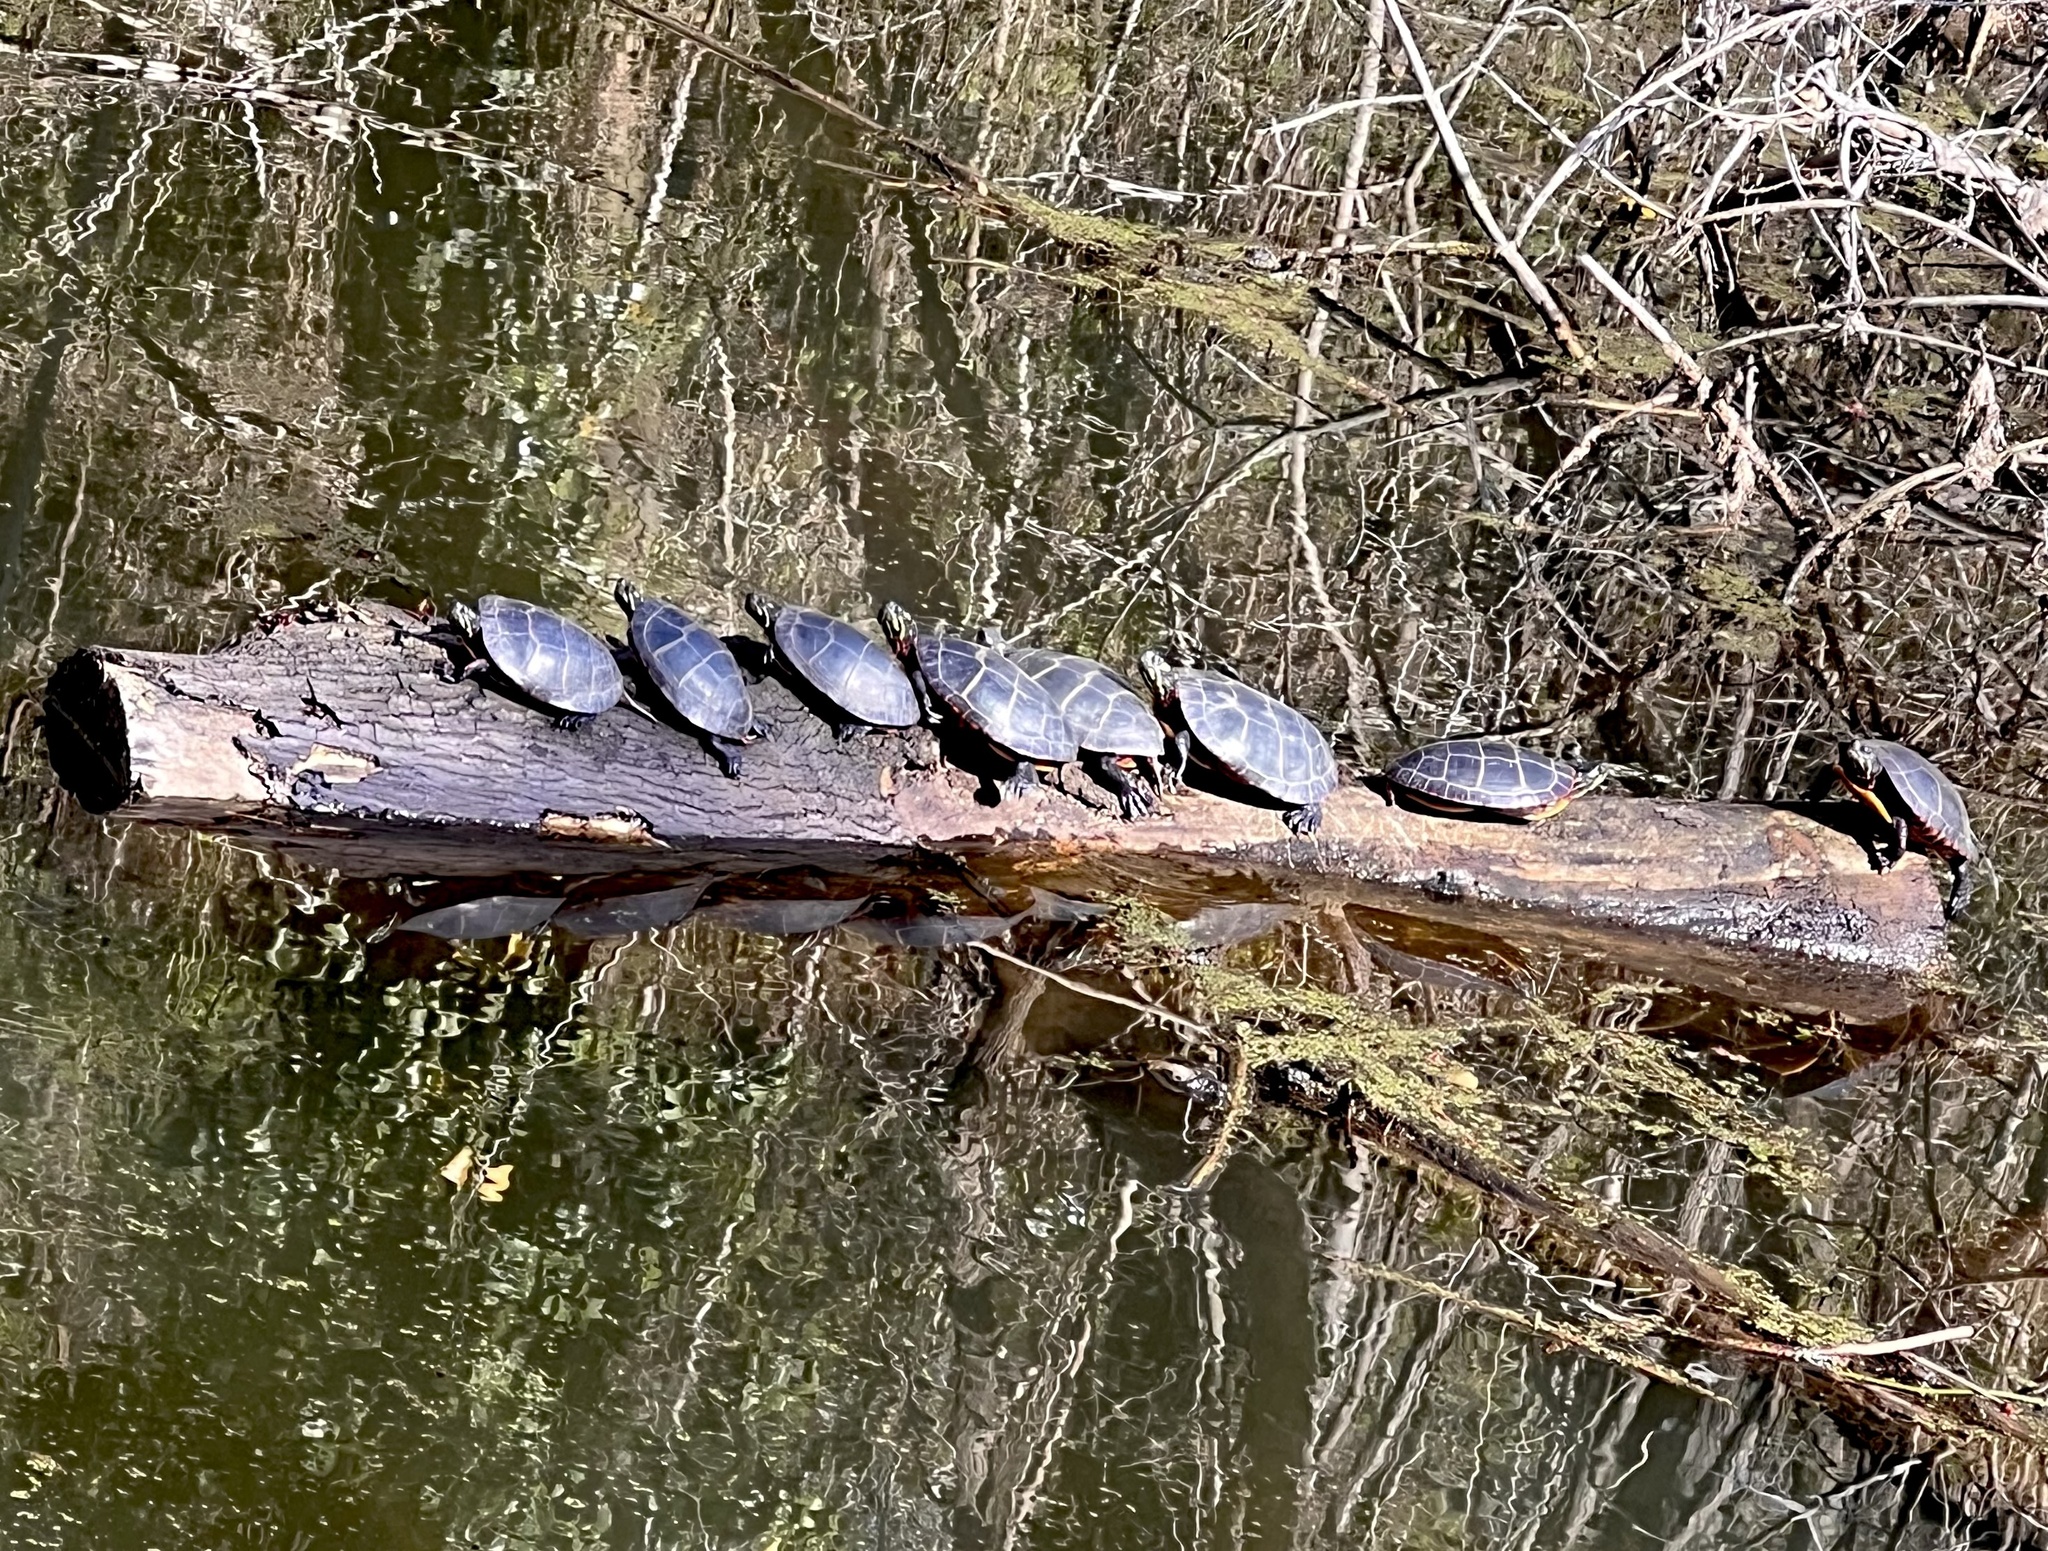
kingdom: Animalia
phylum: Chordata
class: Testudines
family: Emydidae
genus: Chrysemys
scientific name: Chrysemys picta
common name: Painted turtle
